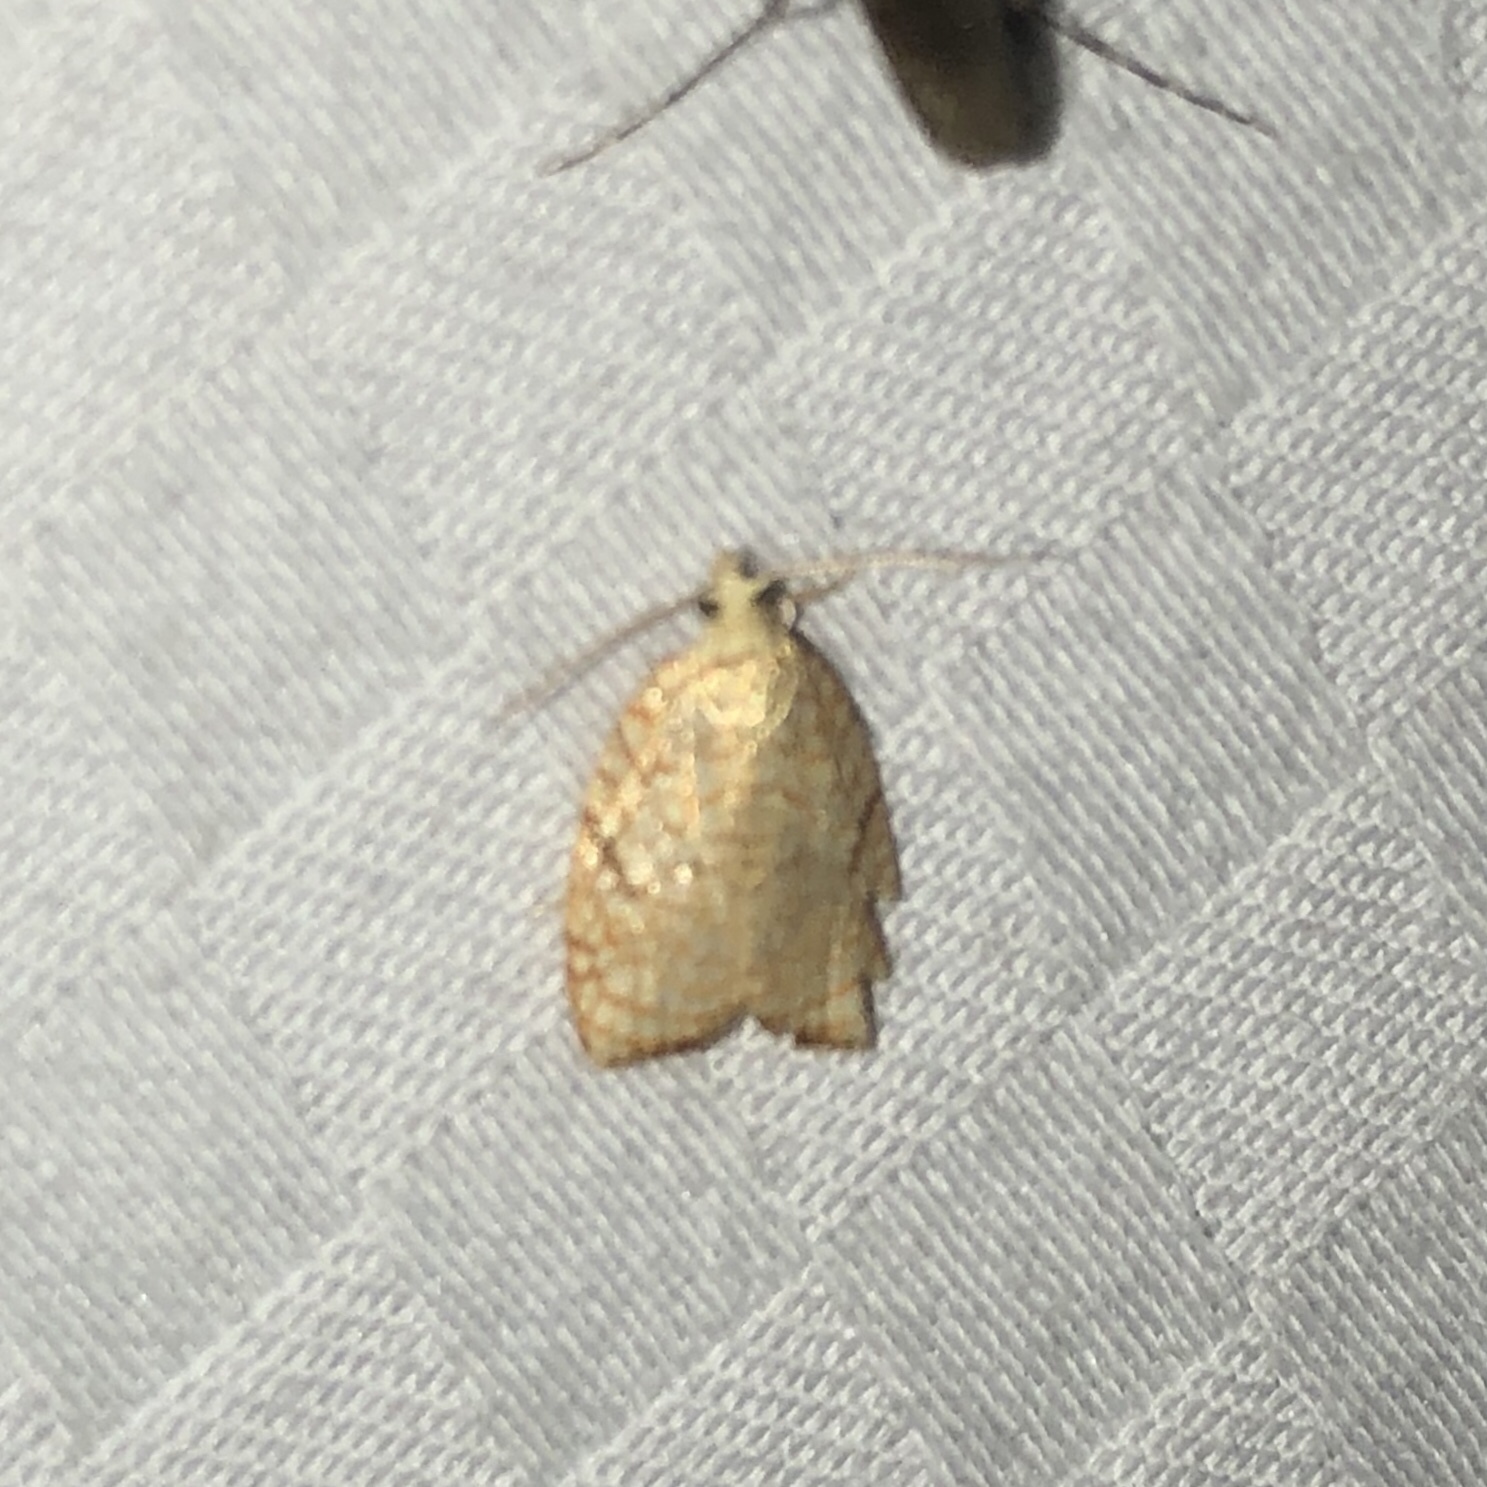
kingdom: Animalia
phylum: Arthropoda
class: Insecta
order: Lepidoptera
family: Tortricidae
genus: Acleris
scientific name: Acleris forsskaleana
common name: Maple button
